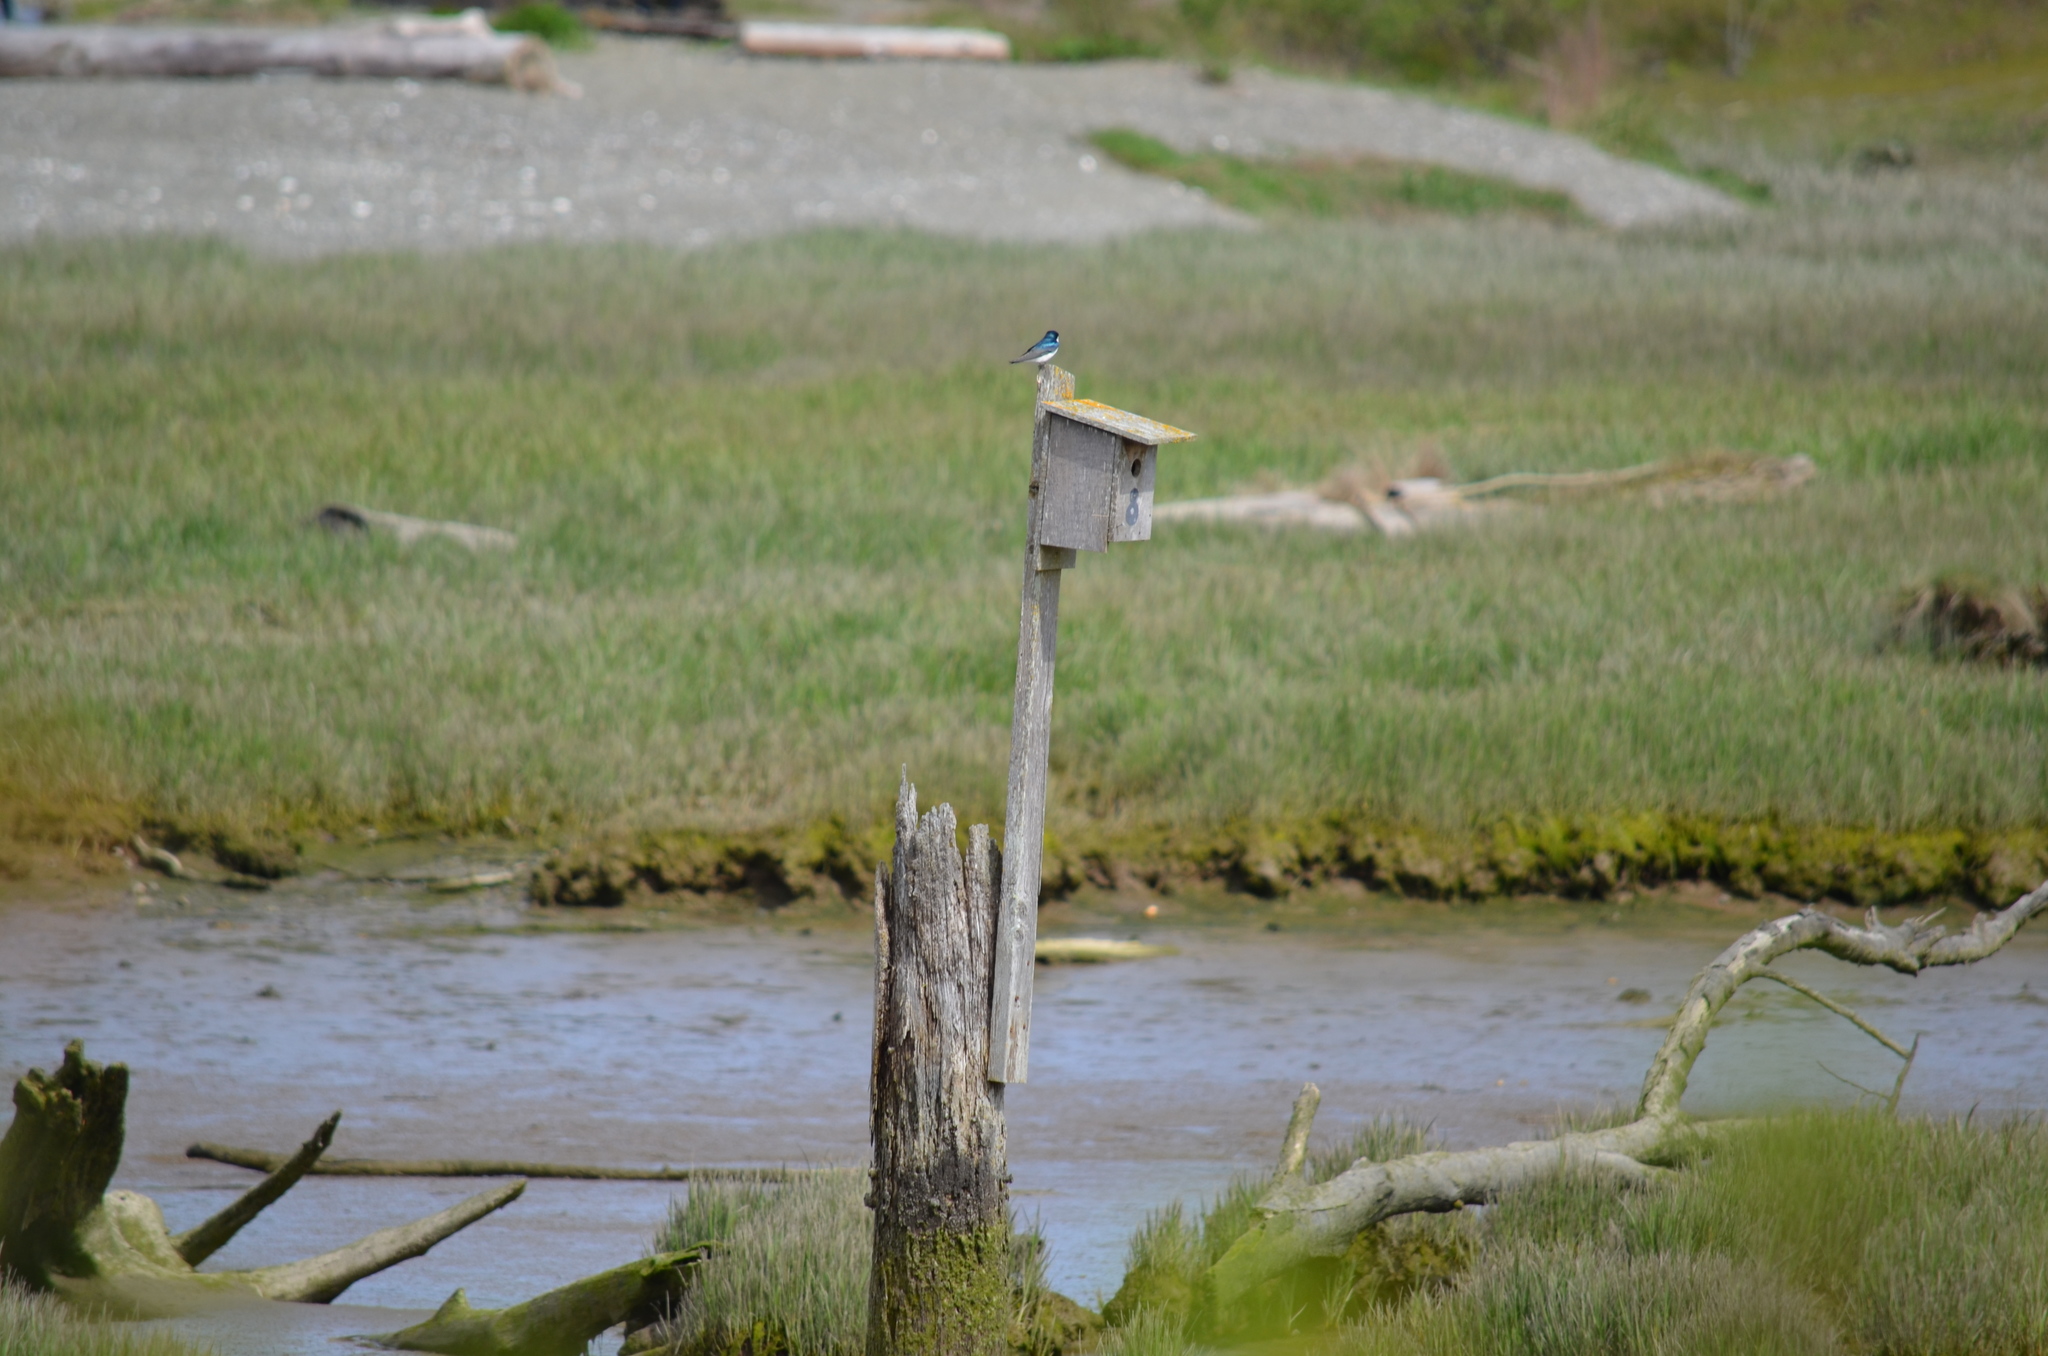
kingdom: Animalia
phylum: Chordata
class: Aves
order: Passeriformes
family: Hirundinidae
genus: Tachycineta
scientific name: Tachycineta bicolor
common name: Tree swallow
